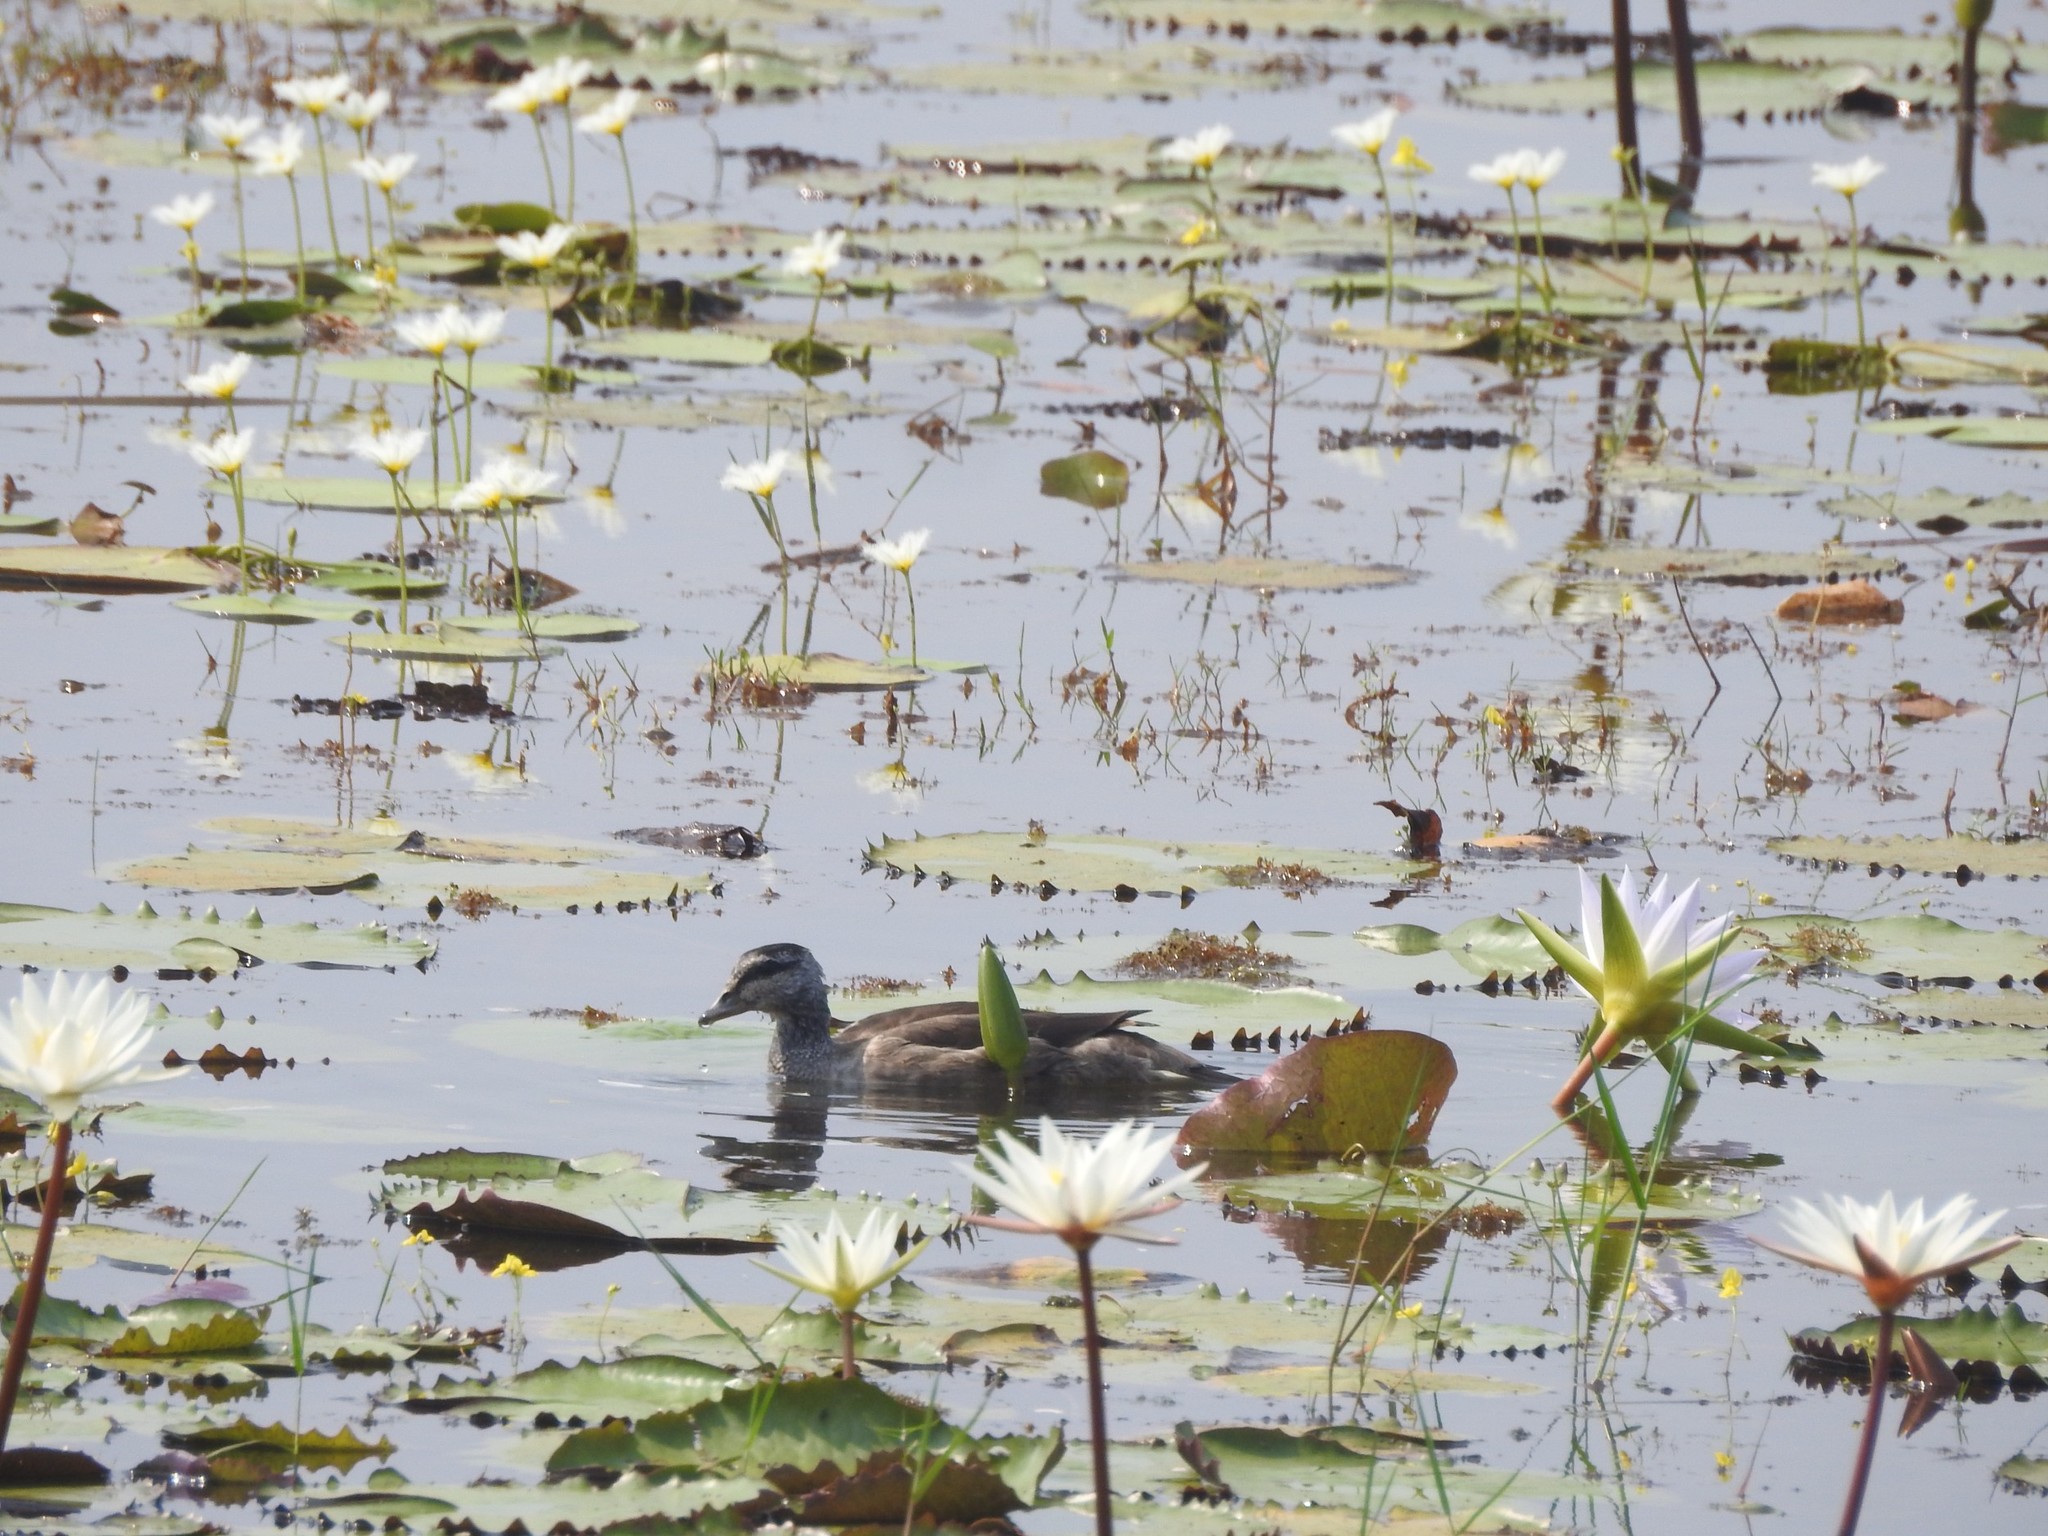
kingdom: Animalia
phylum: Chordata
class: Aves
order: Anseriformes
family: Anatidae
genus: Nettapus
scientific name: Nettapus coromandelianus
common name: Cotton pygmy-goose
